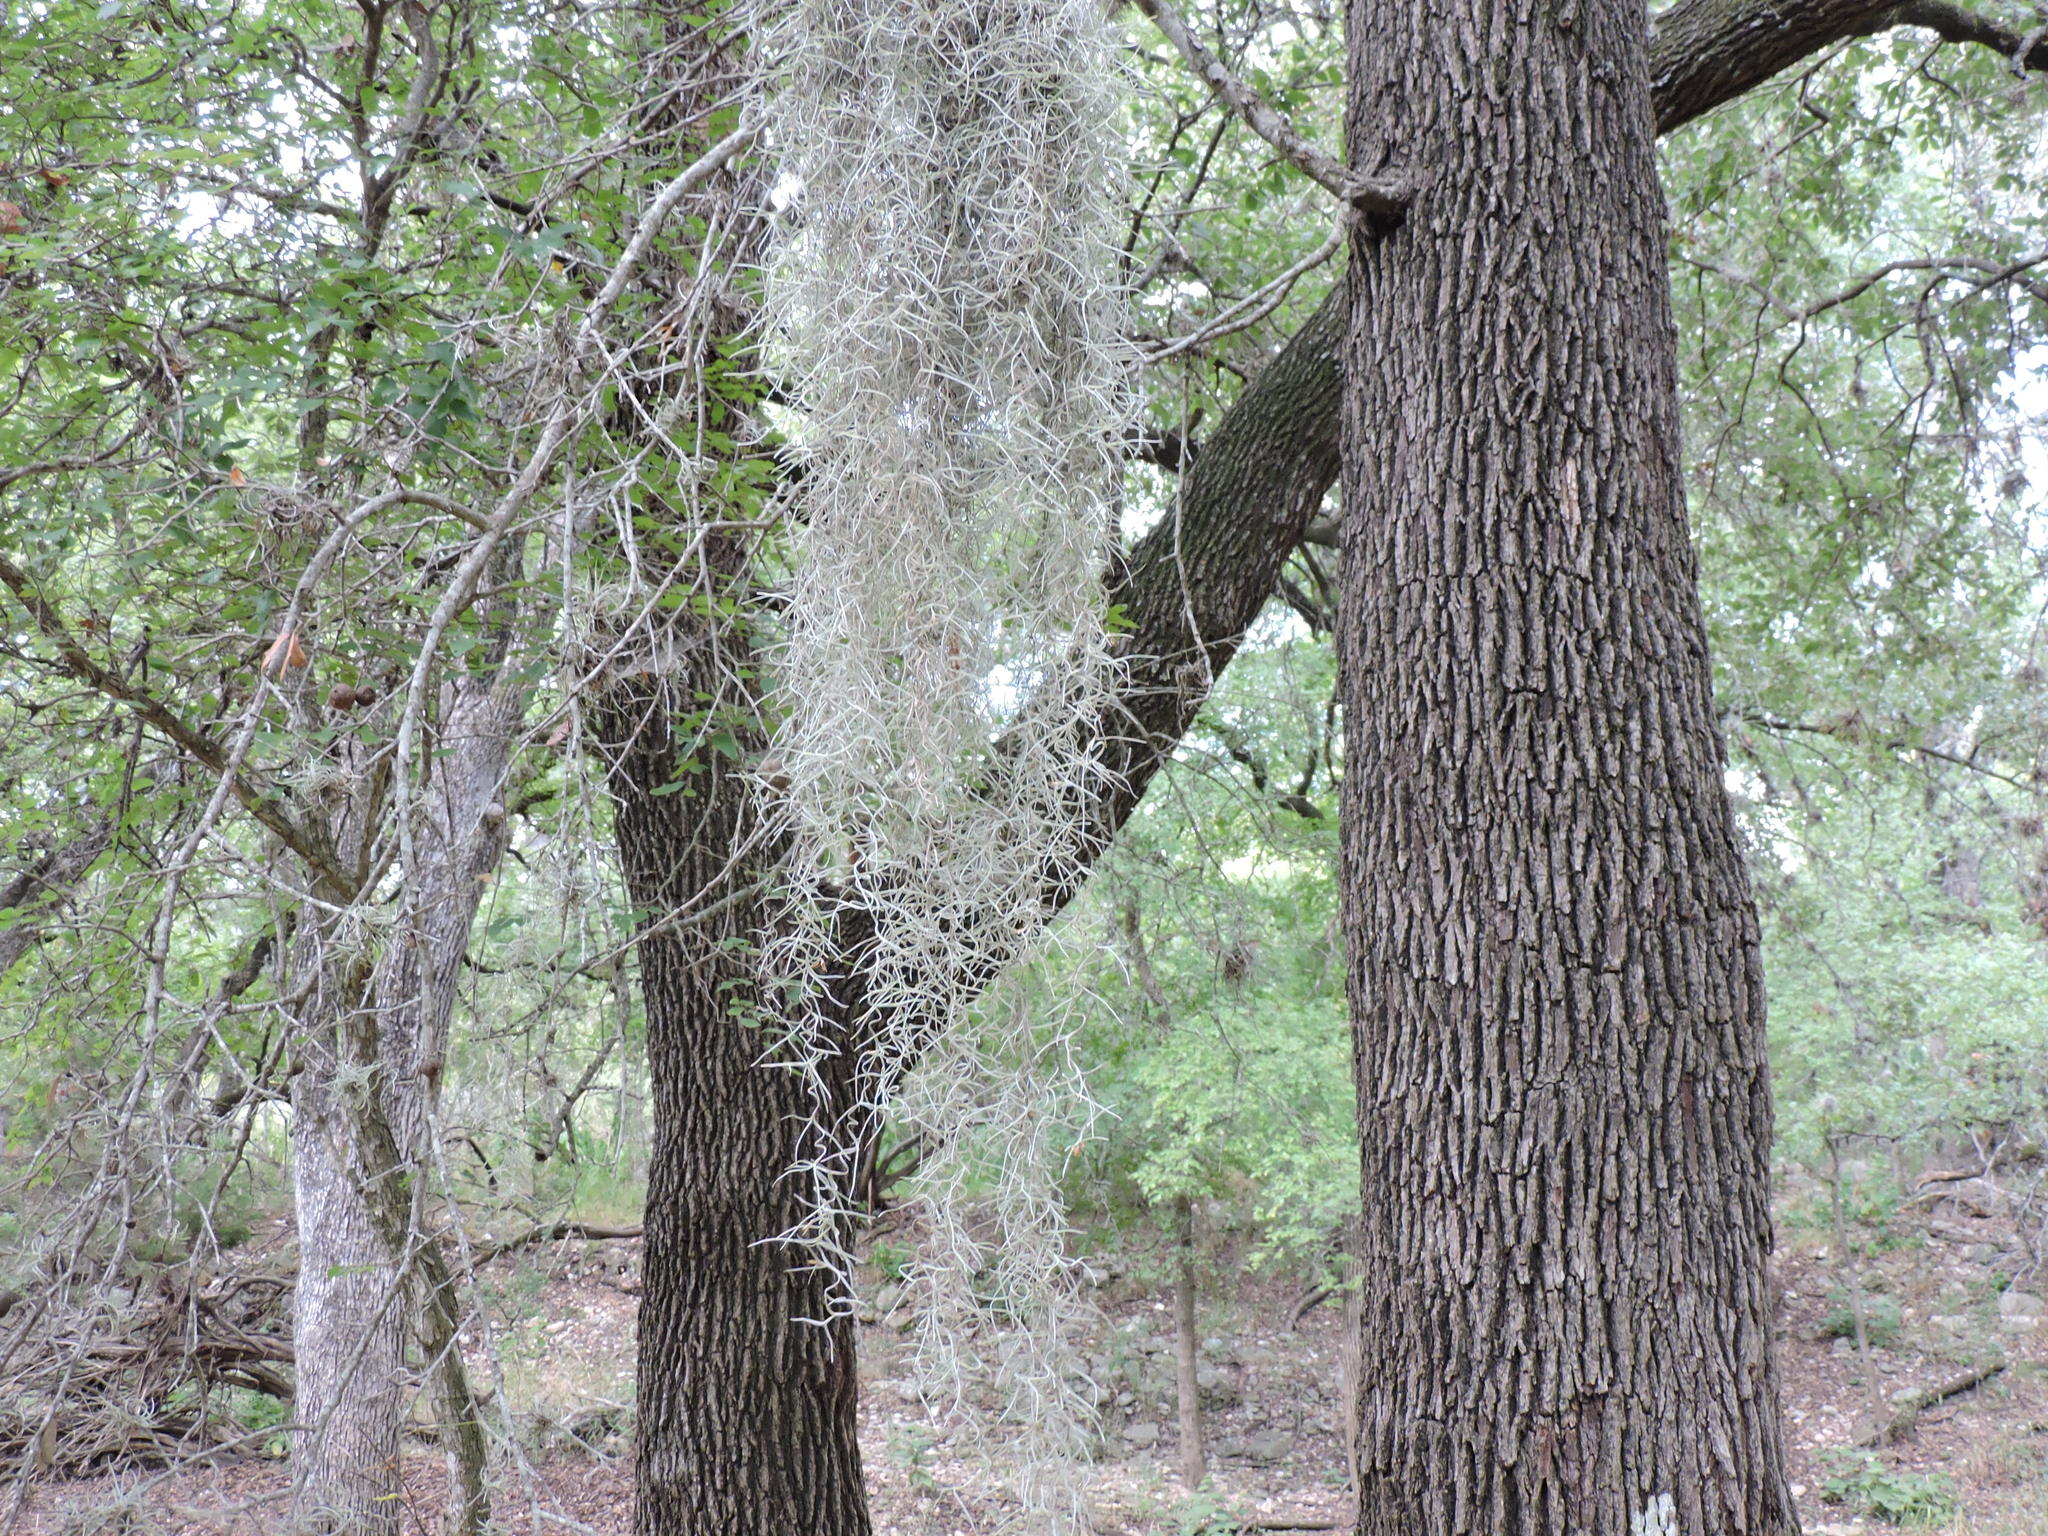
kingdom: Plantae
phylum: Tracheophyta
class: Liliopsida
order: Poales
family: Bromeliaceae
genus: Tillandsia
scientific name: Tillandsia usneoides
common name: Spanish moss
